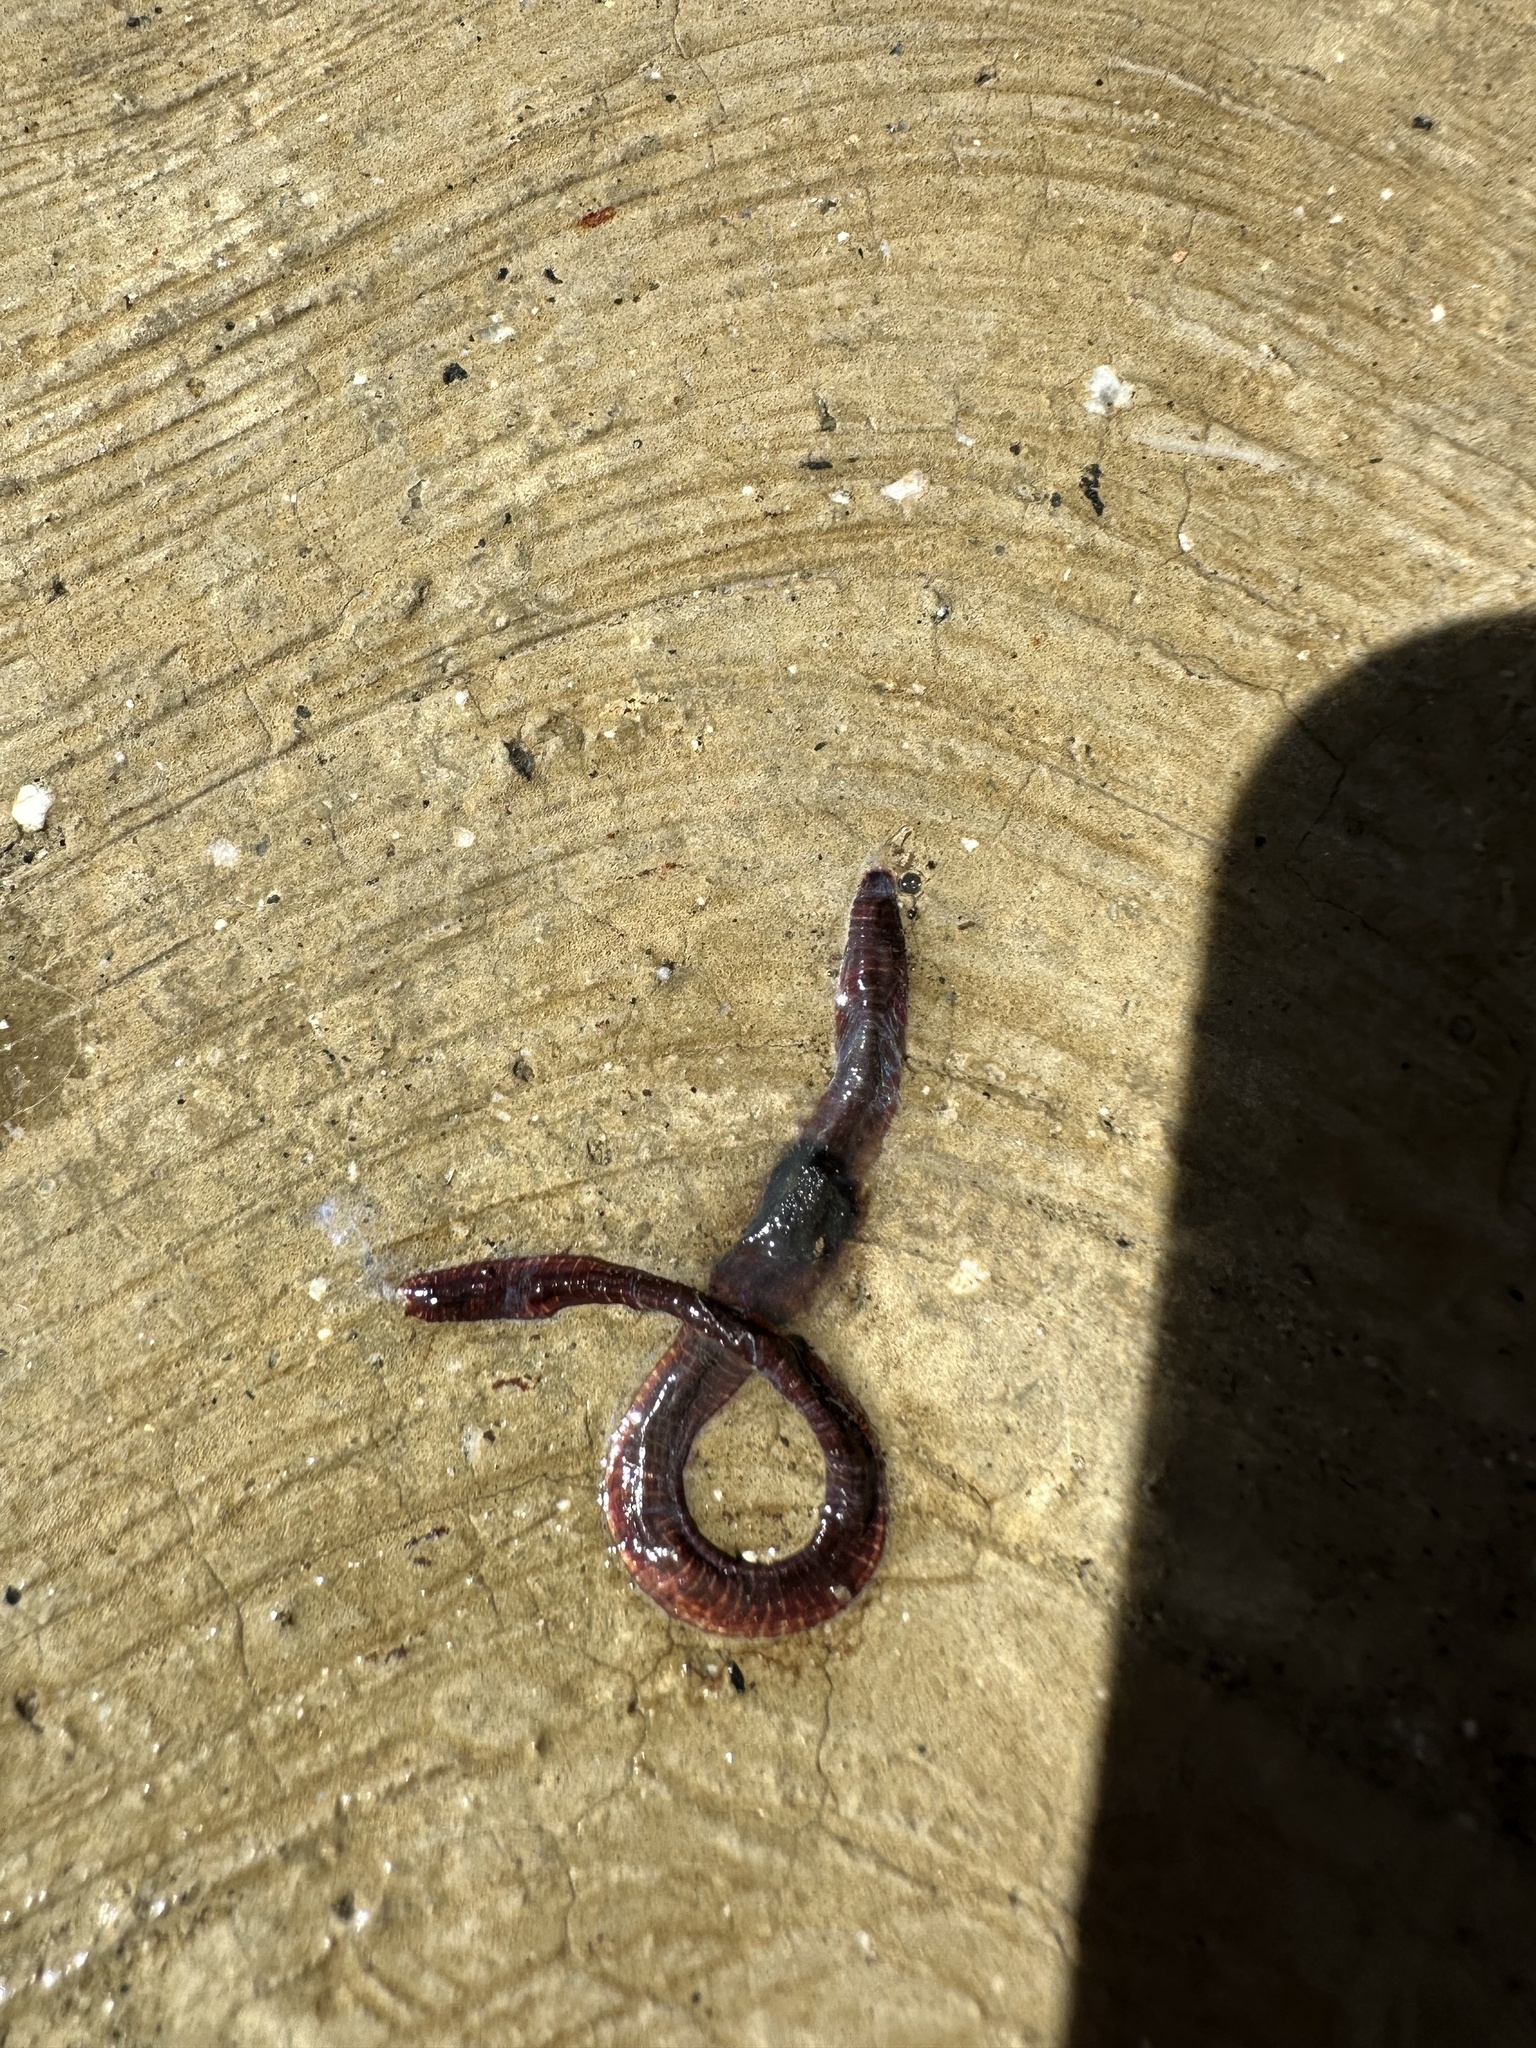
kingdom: Animalia
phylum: Annelida
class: Clitellata
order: Crassiclitellata
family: Lumbricidae
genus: Lumbricus
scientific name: Lumbricus terrestris
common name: Common earthworm
